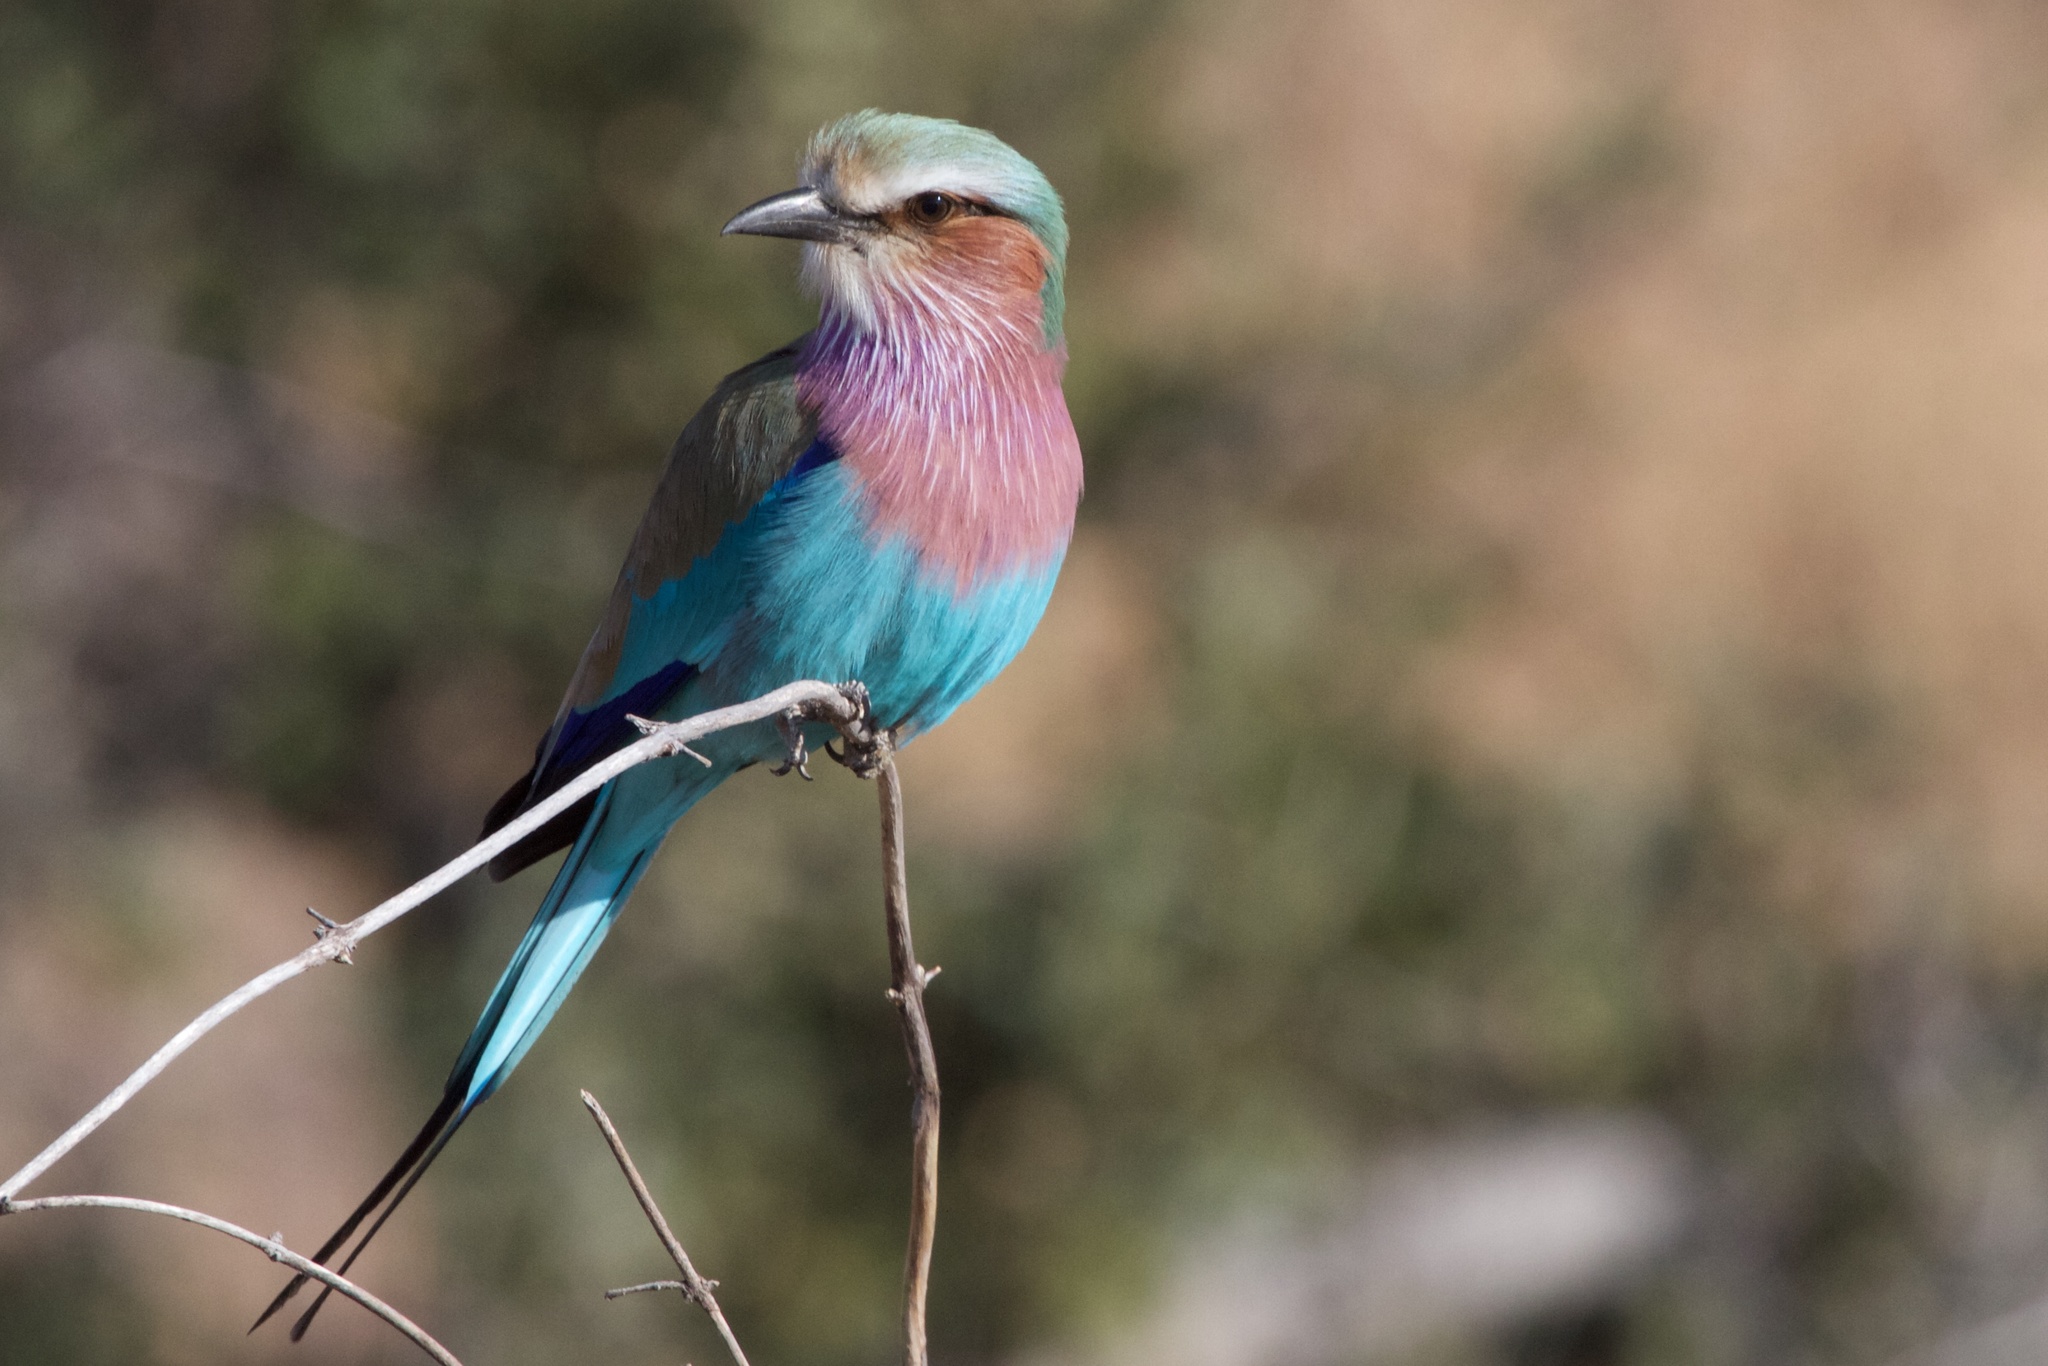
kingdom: Animalia
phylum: Chordata
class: Aves
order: Coraciiformes
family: Coraciidae
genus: Coracias
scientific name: Coracias caudatus
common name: Lilac-breasted roller
